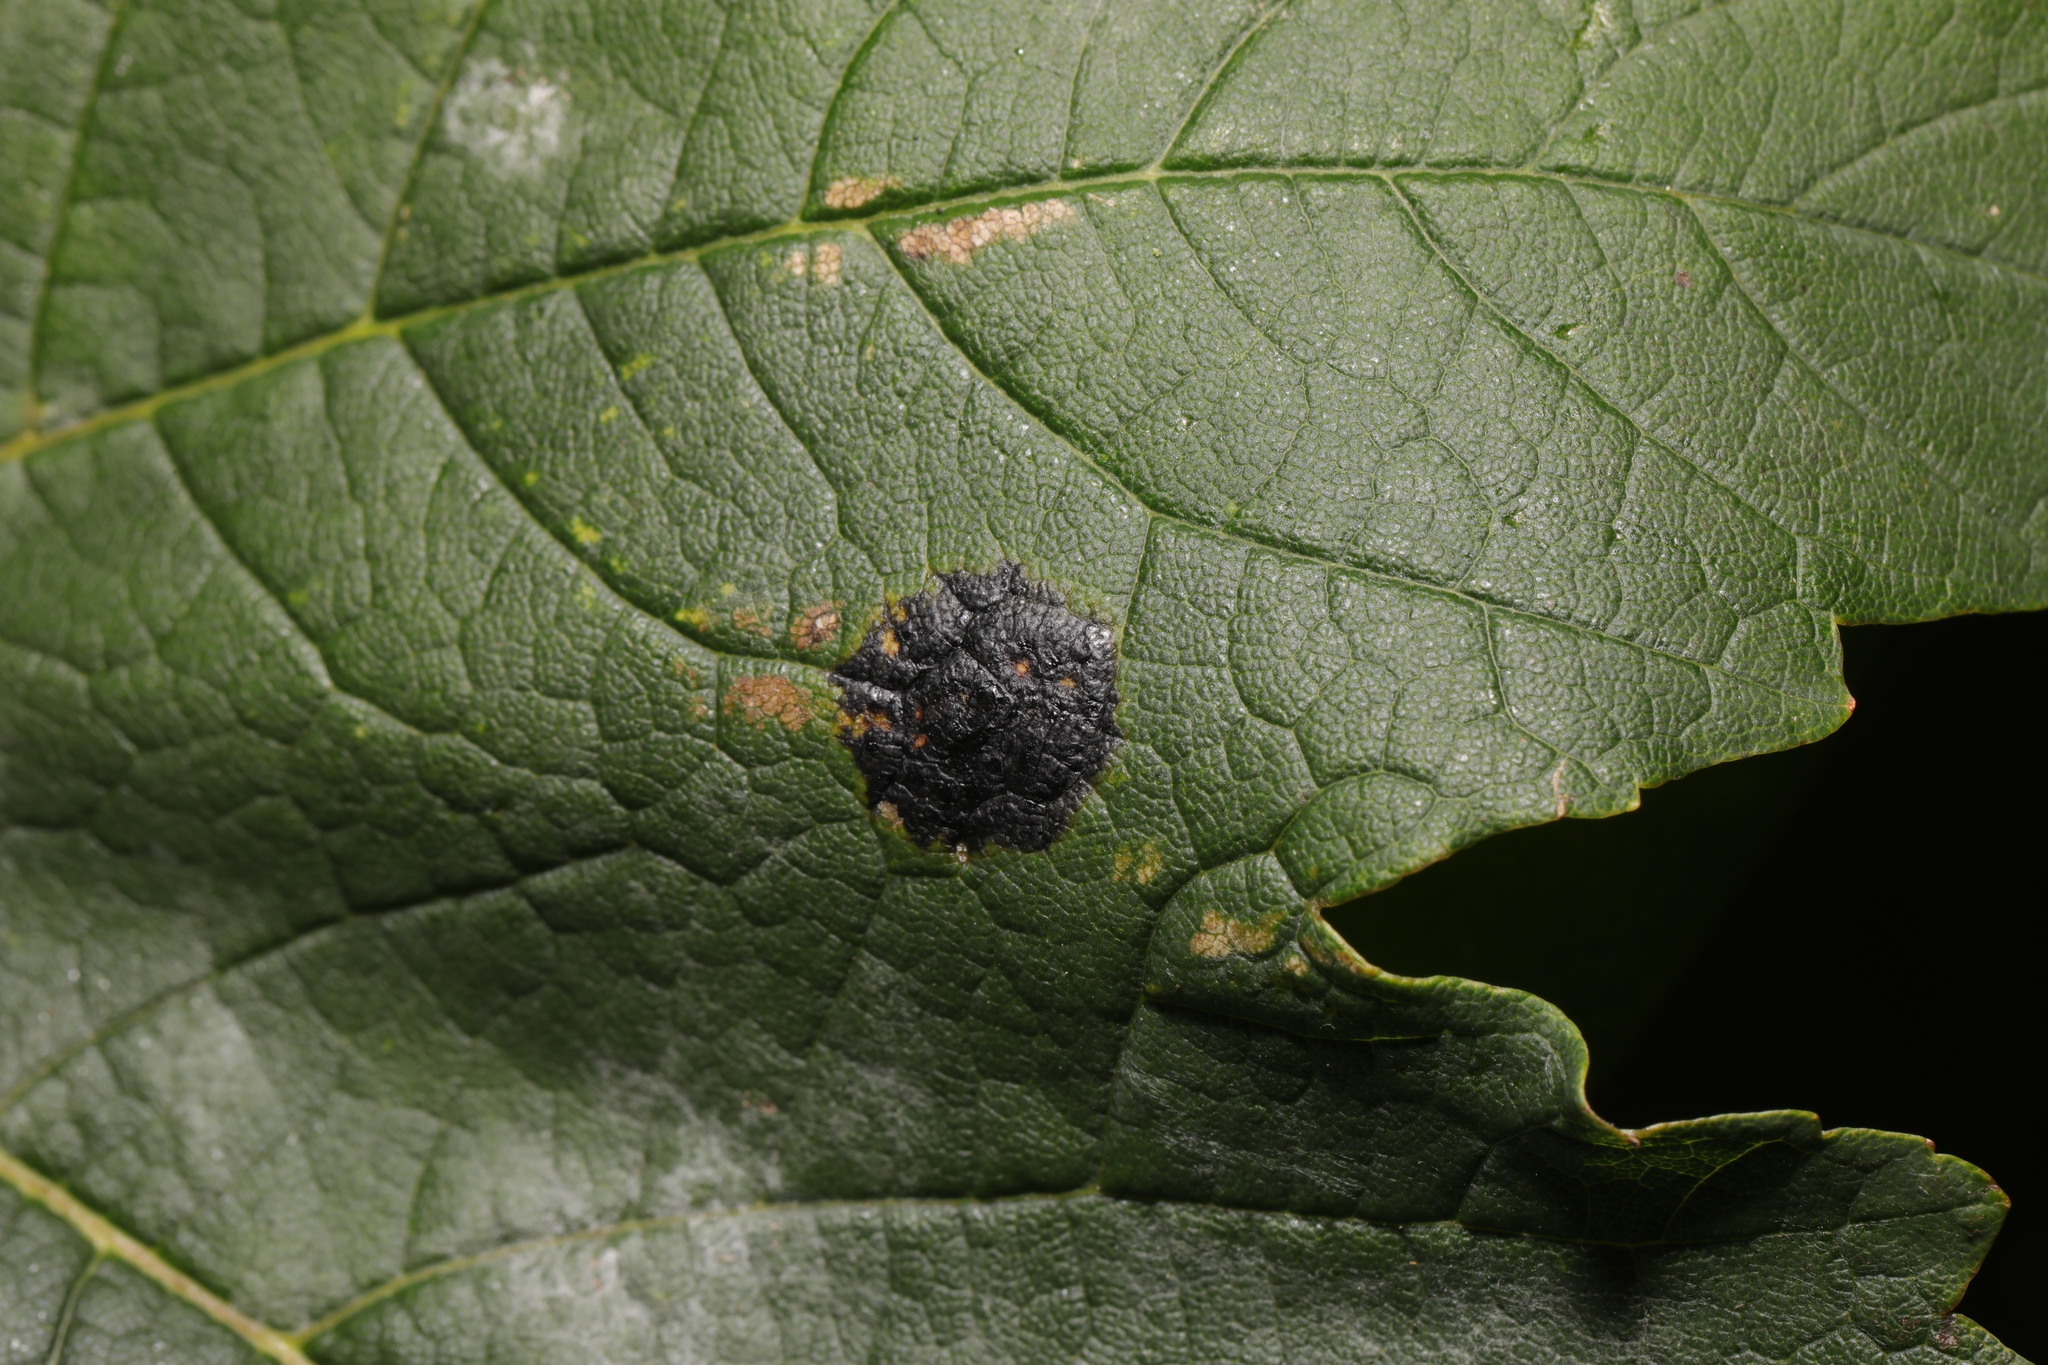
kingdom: Fungi
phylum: Ascomycota
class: Leotiomycetes
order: Rhytismatales
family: Rhytismataceae
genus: Rhytisma
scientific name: Rhytisma acerinum
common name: European tar spot
